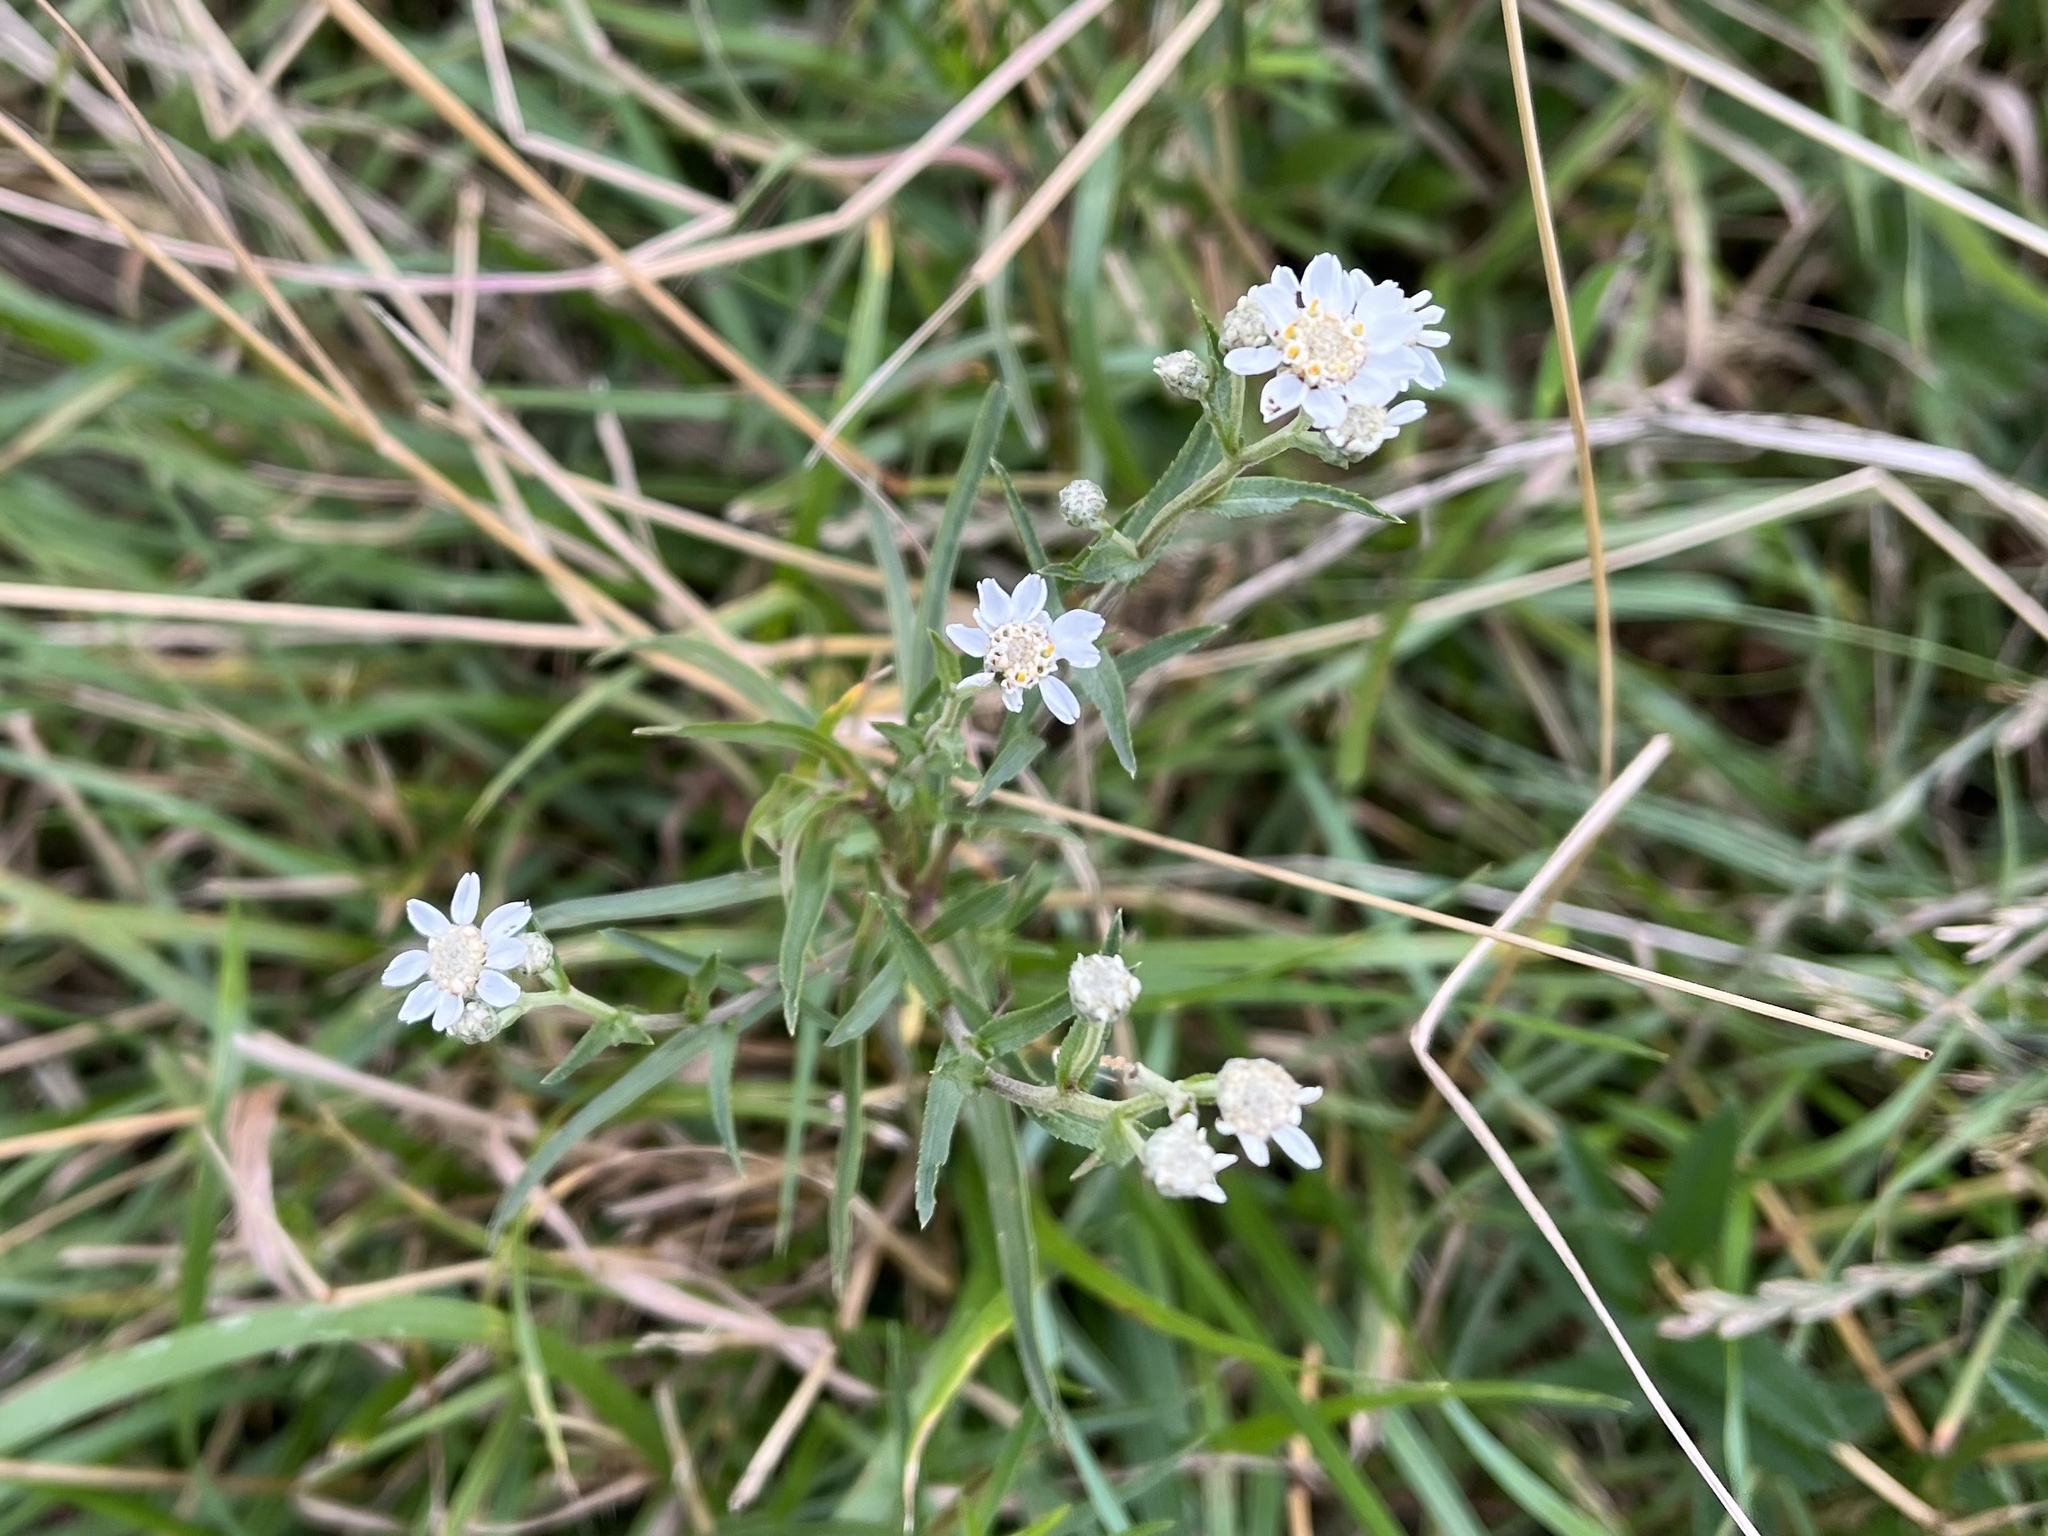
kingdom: Plantae
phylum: Tracheophyta
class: Magnoliopsida
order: Asterales
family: Asteraceae
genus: Achillea
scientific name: Achillea ptarmica
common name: Sneezeweed
